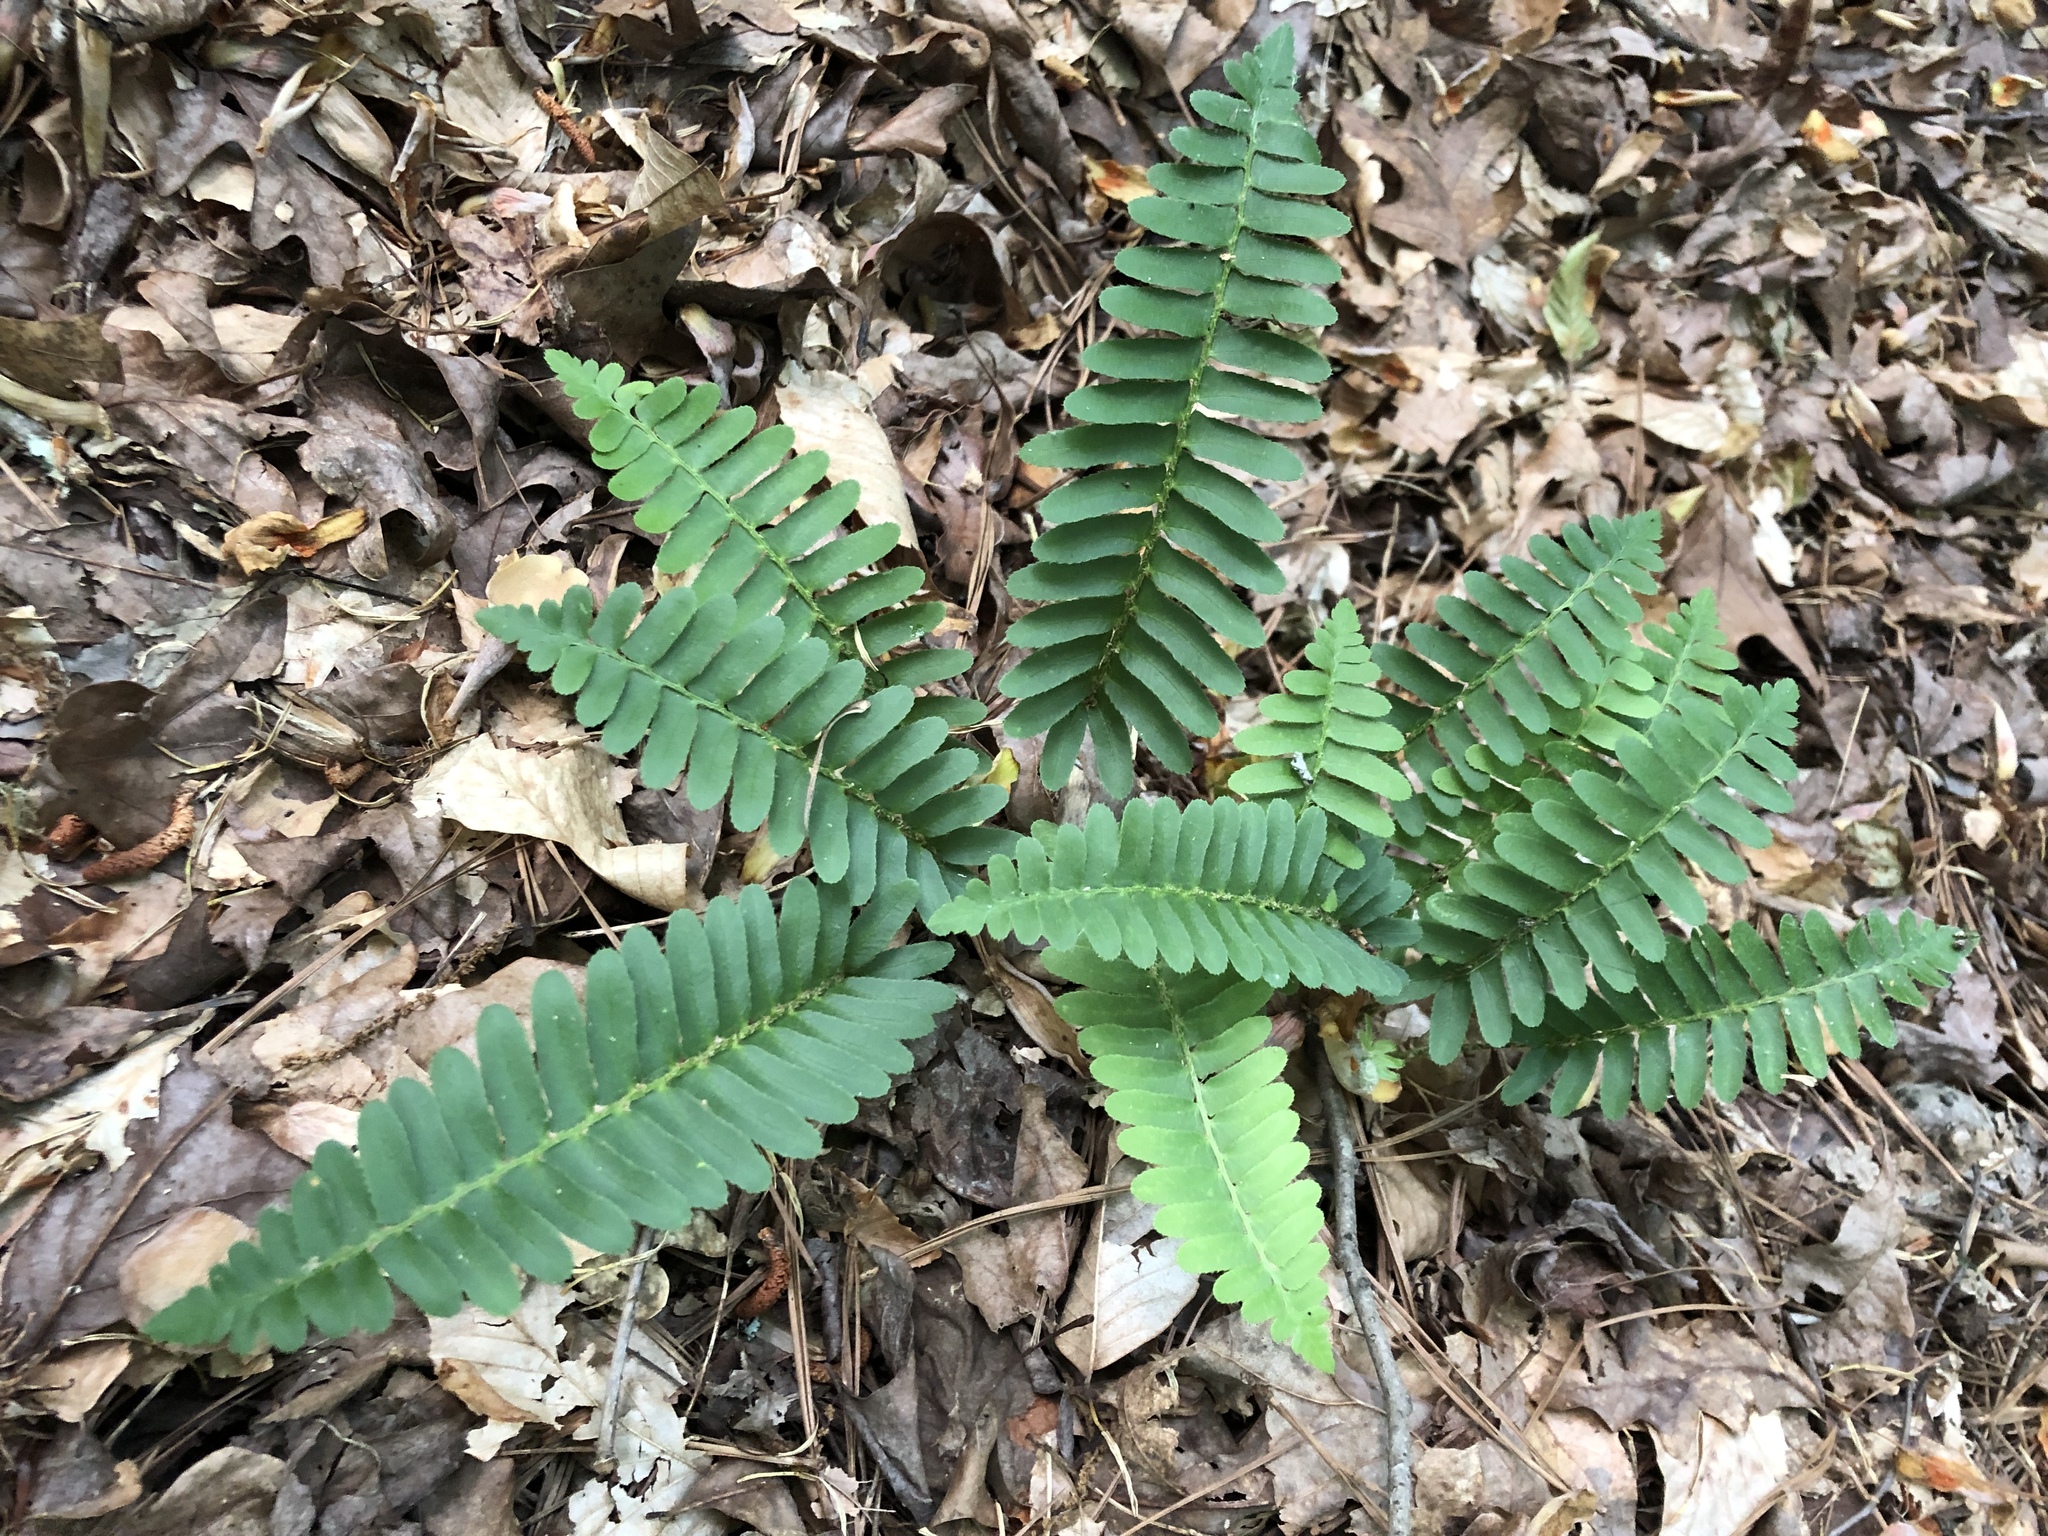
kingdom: Plantae
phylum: Tracheophyta
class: Polypodiopsida
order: Polypodiales
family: Dryopteridaceae
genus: Polystichum
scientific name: Polystichum acrostichoides
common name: Christmas fern
